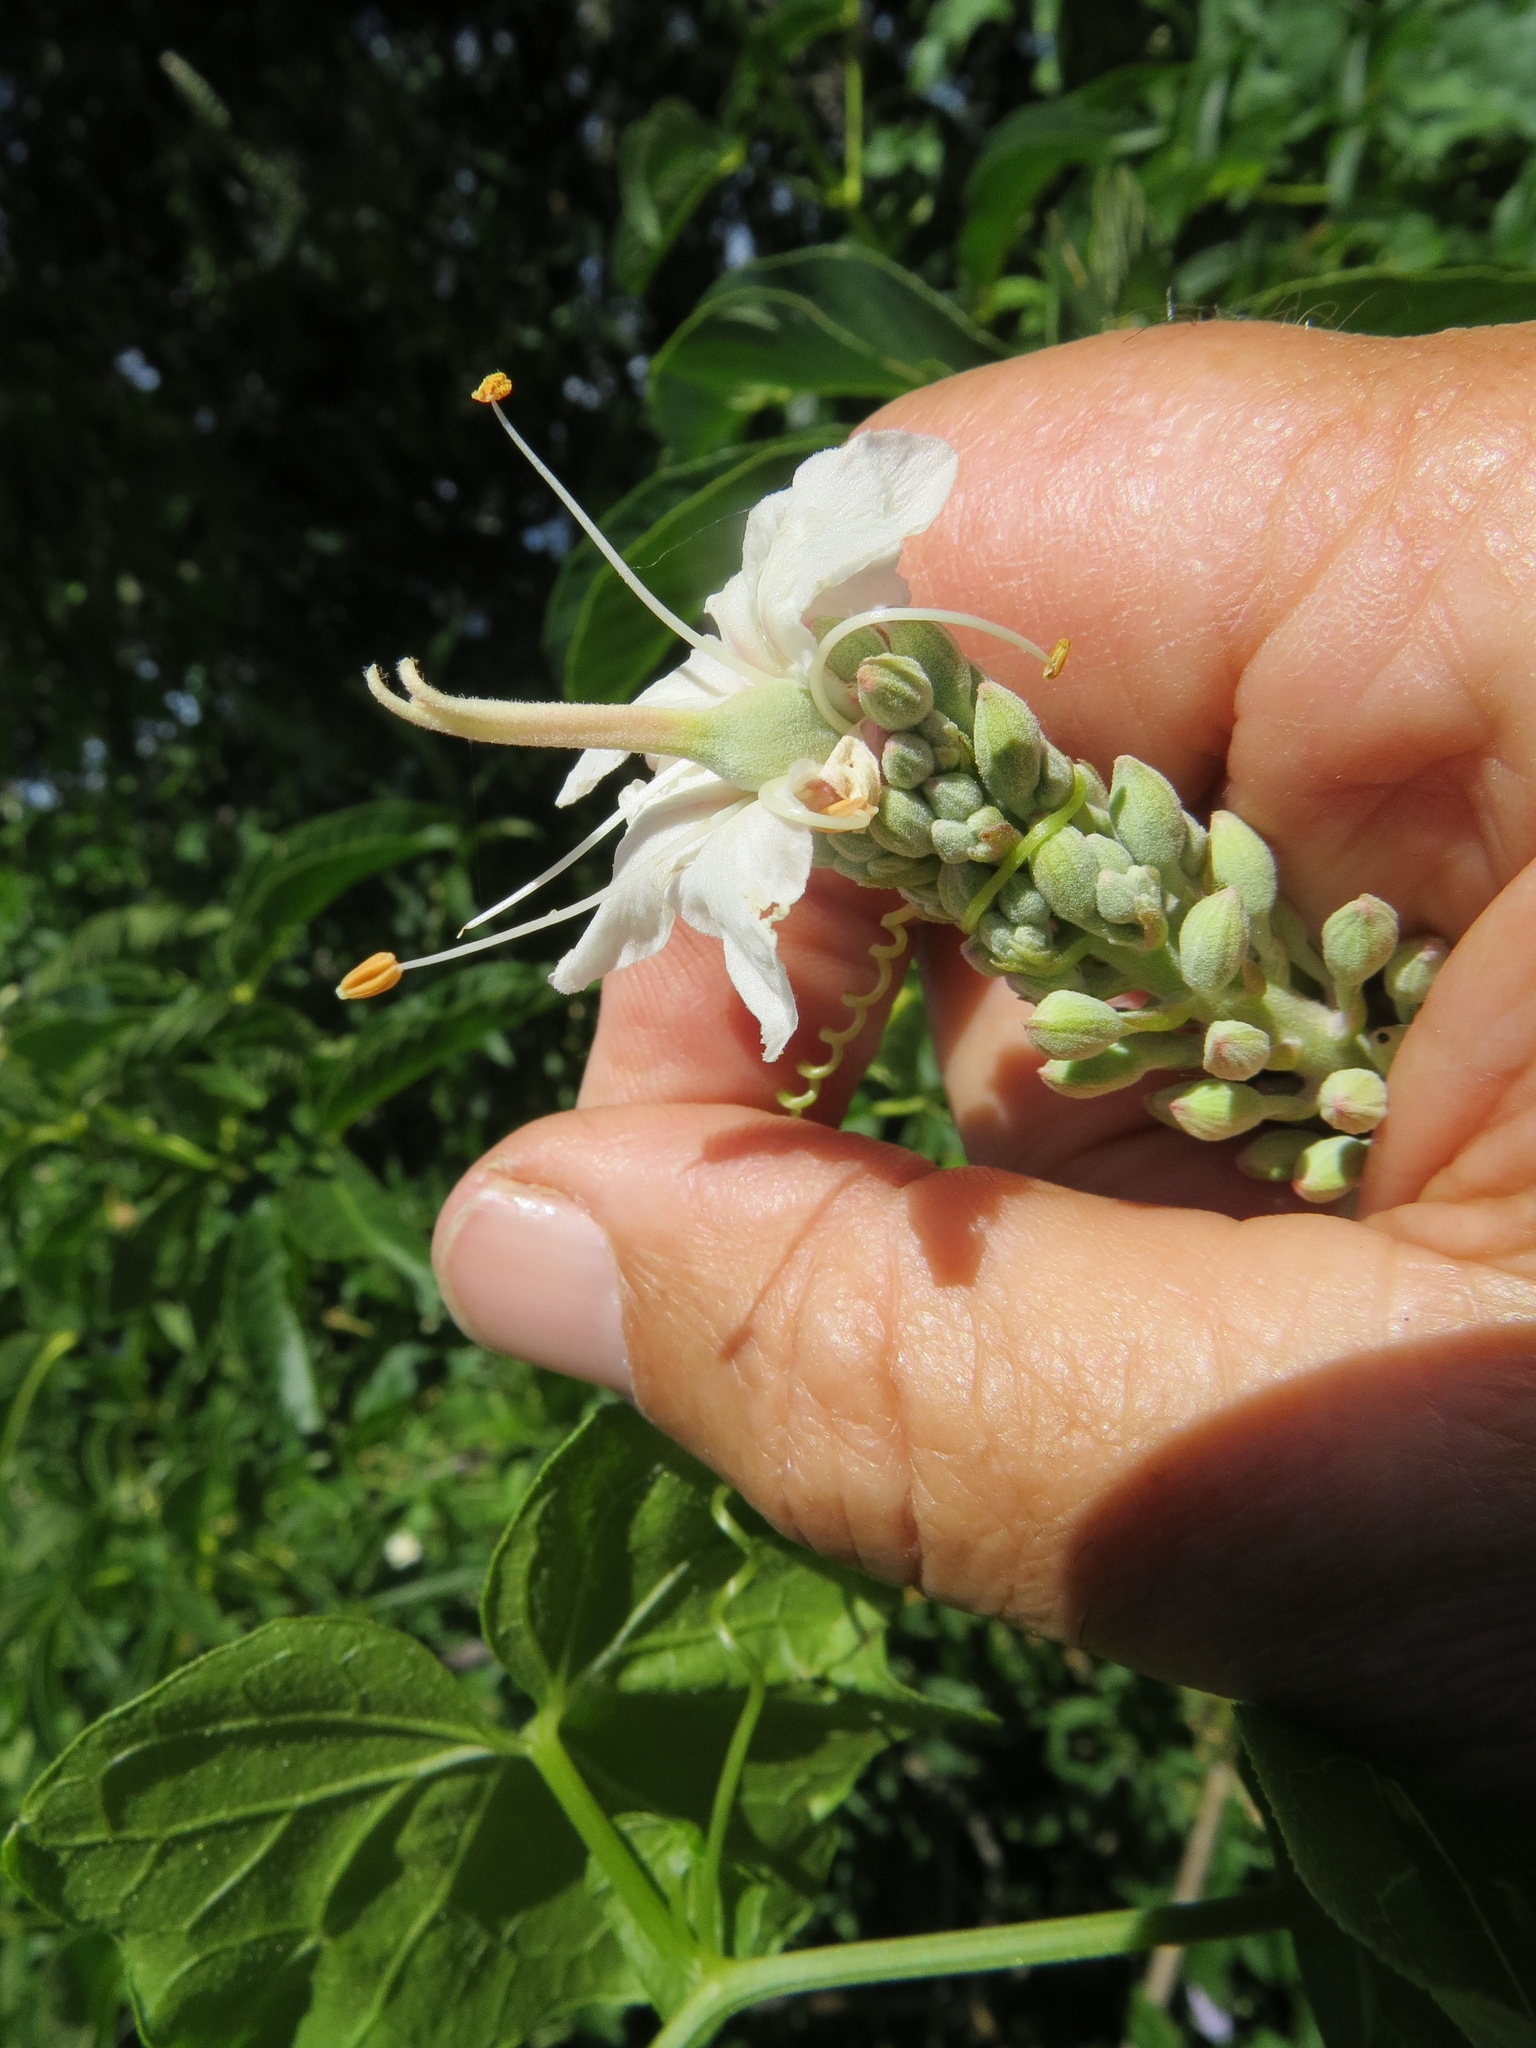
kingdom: Plantae
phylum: Tracheophyta
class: Magnoliopsida
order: Sapindales
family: Sapindaceae
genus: Aesculus
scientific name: Aesculus californica
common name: California buckeye
